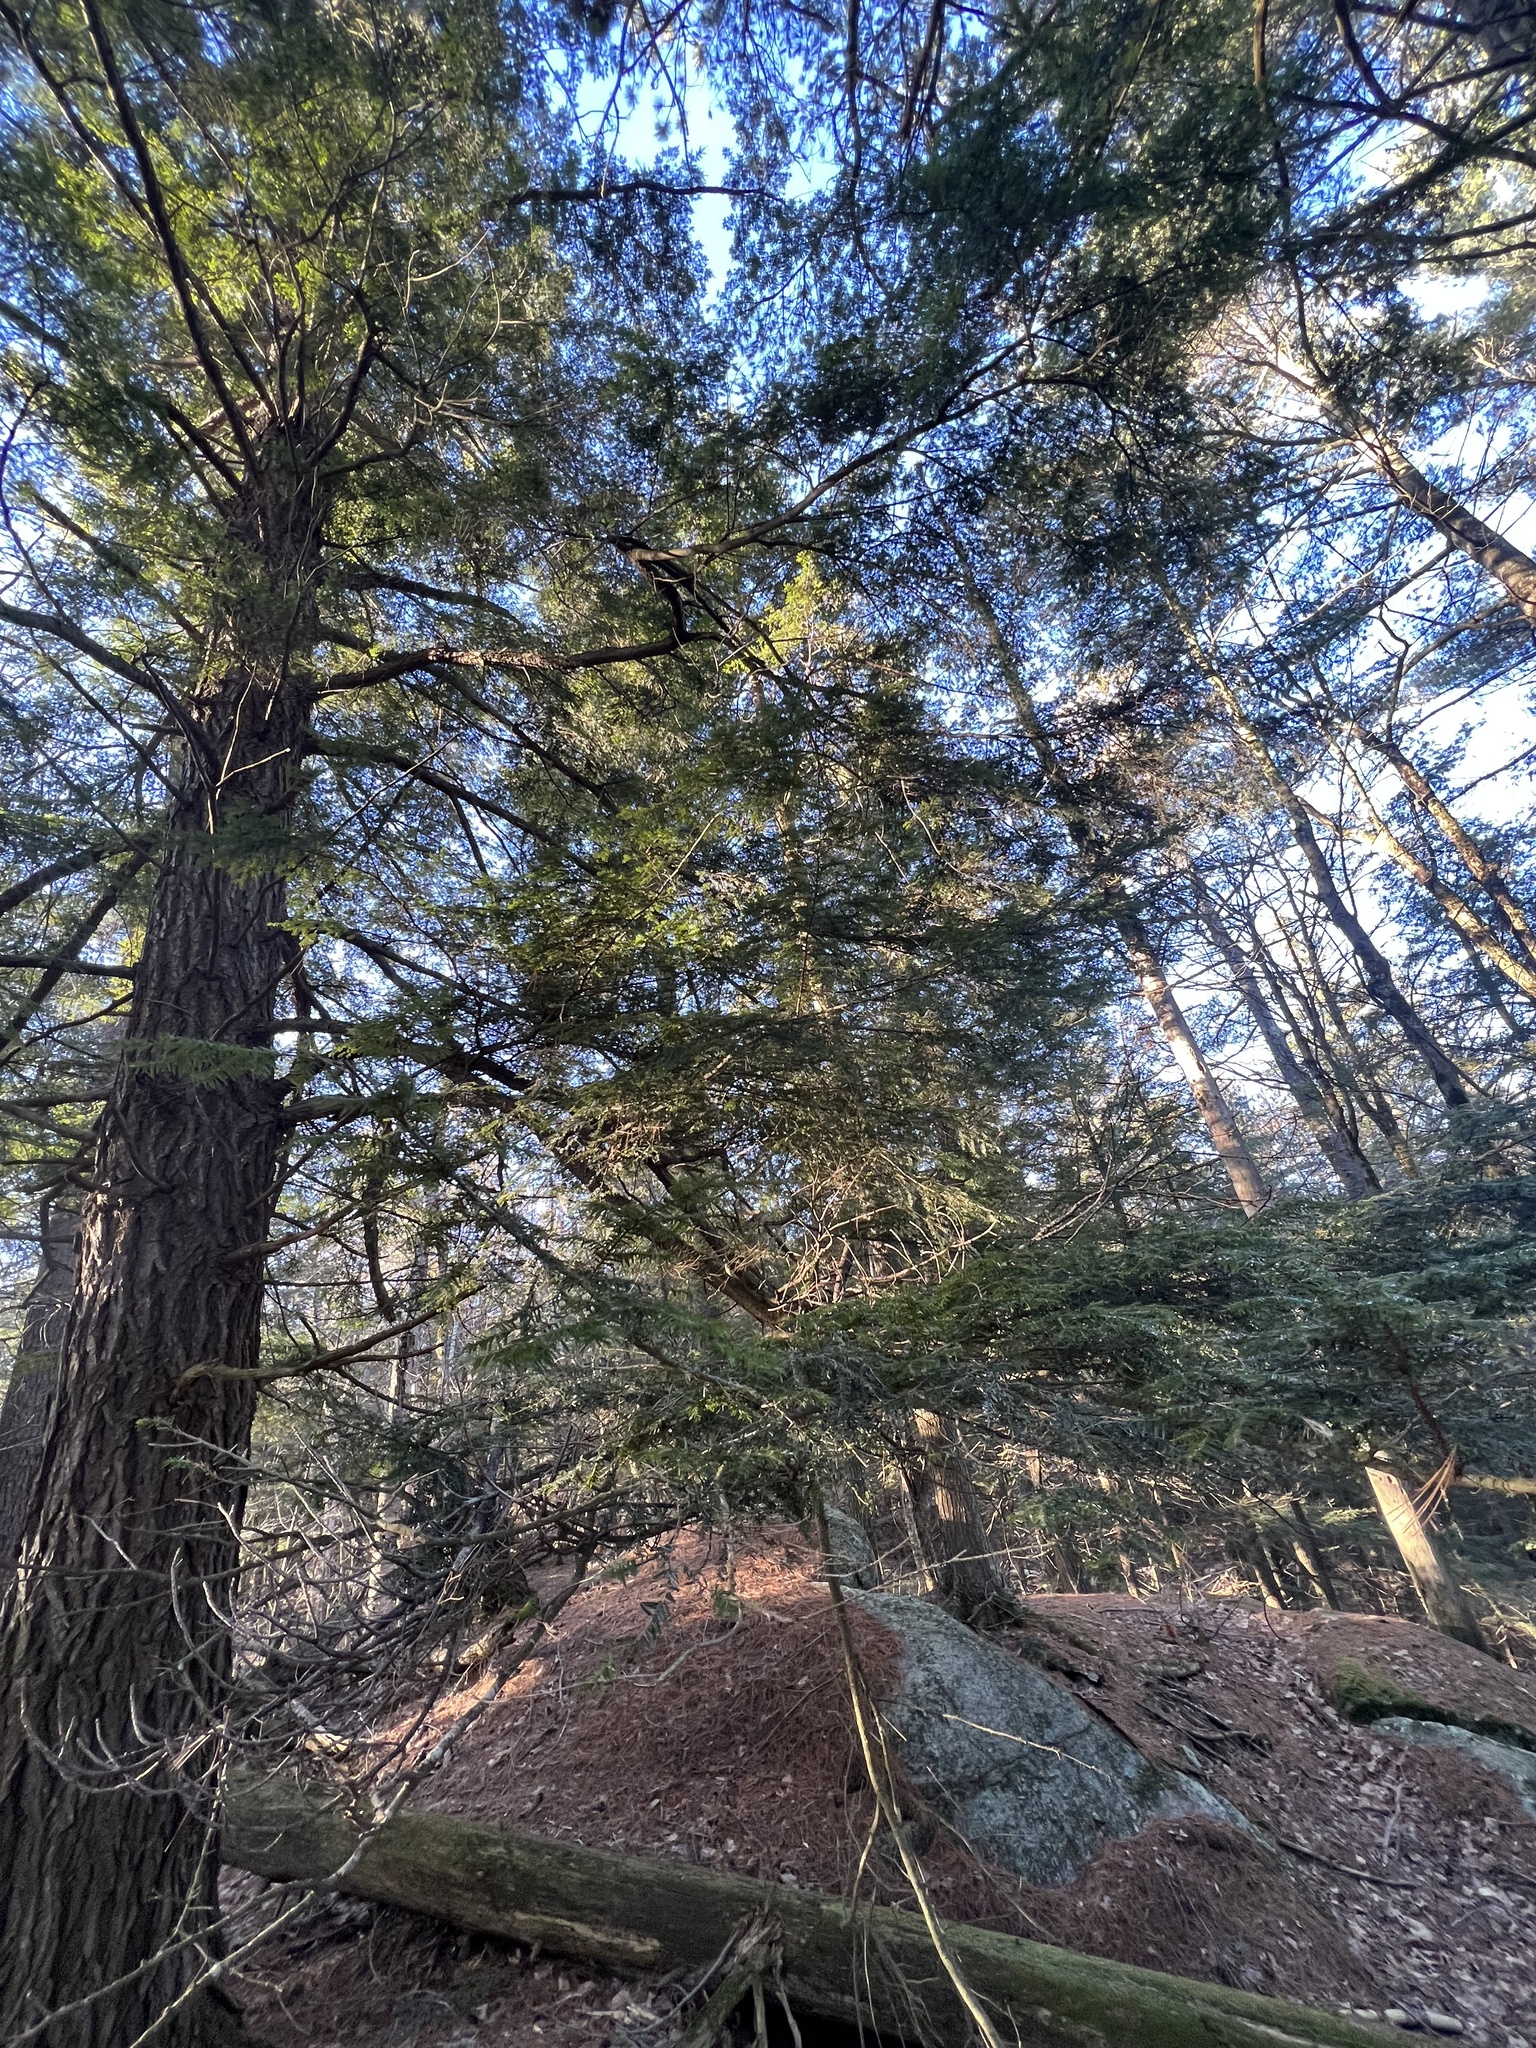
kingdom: Plantae
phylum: Tracheophyta
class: Pinopsida
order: Pinales
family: Pinaceae
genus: Tsuga
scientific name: Tsuga canadensis
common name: Eastern hemlock
